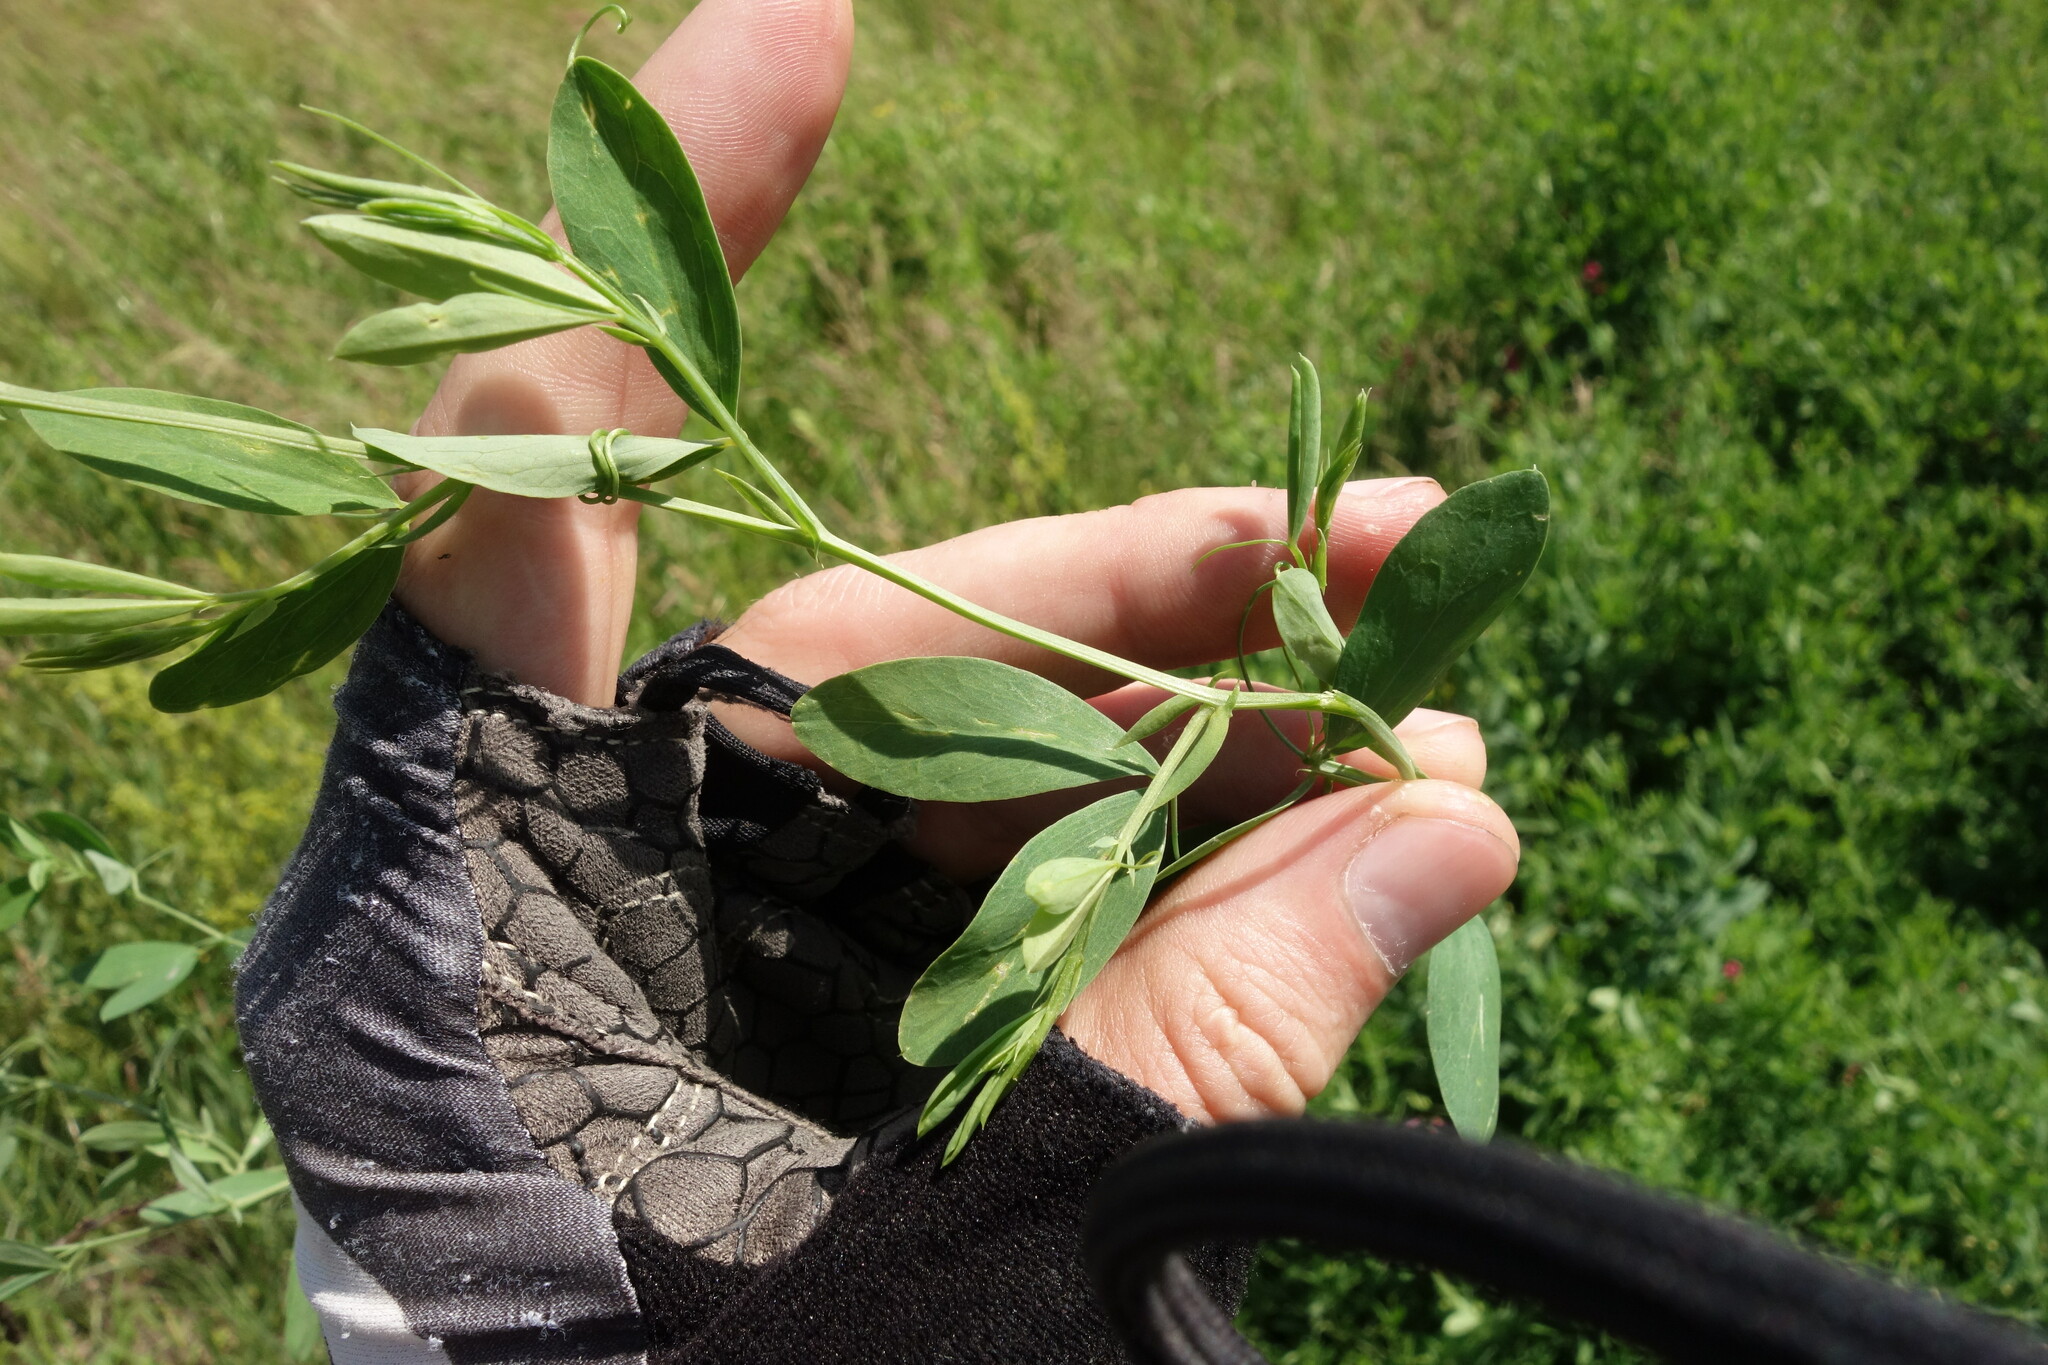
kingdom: Plantae
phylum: Tracheophyta
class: Magnoliopsida
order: Fabales
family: Fabaceae
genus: Lathyrus
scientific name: Lathyrus tuberosus
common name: Tuberous pea
